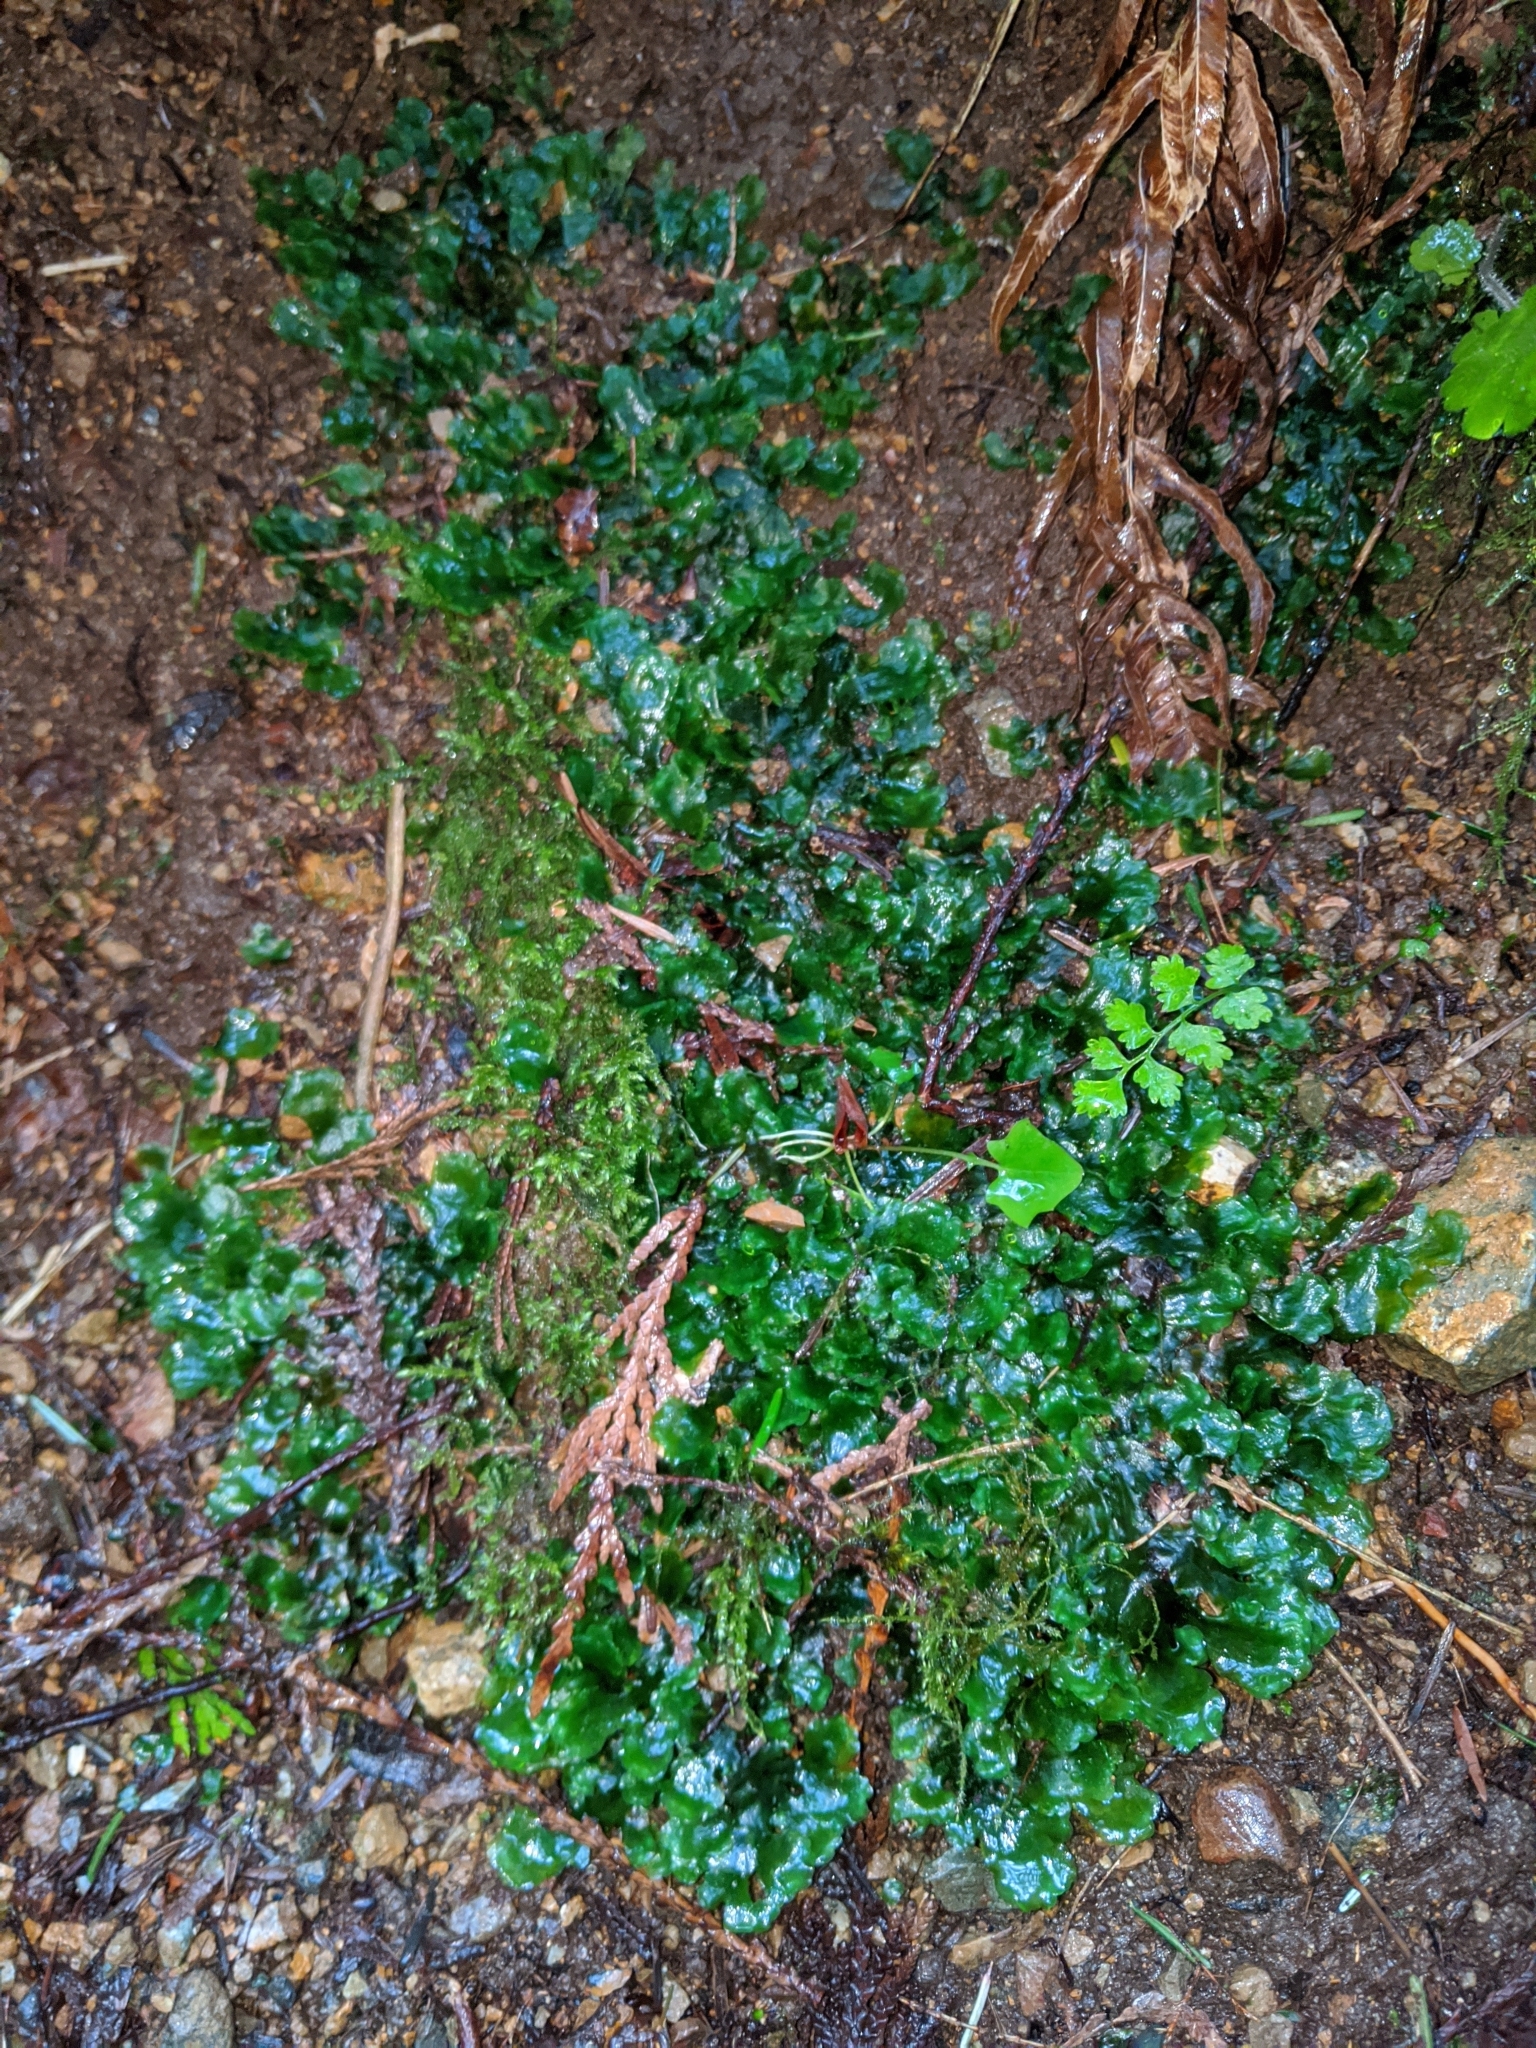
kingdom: Plantae
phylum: Marchantiophyta
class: Jungermanniopsida
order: Pelliales
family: Pelliaceae
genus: Pellia
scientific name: Pellia neesiana
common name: Nees  pellia
